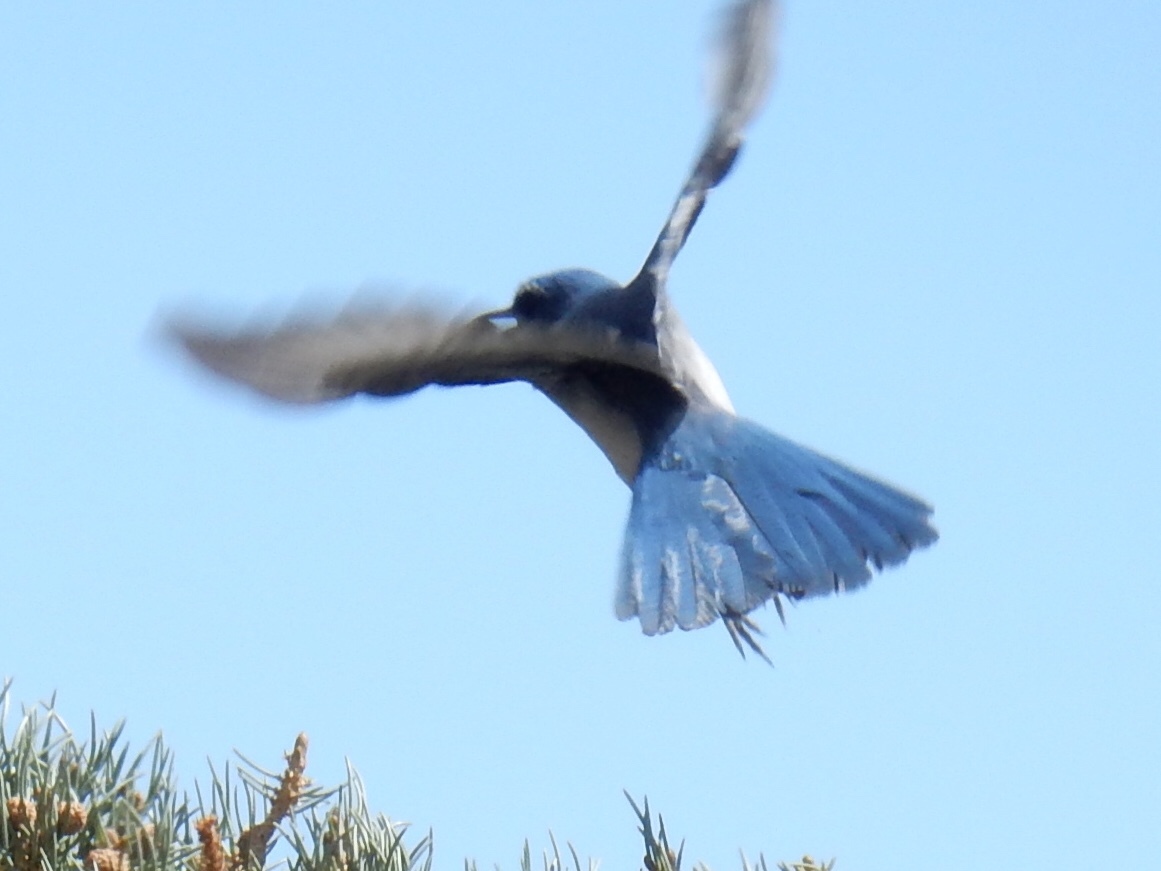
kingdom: Animalia
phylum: Chordata
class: Aves
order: Passeriformes
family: Corvidae
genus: Aphelocoma
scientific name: Aphelocoma woodhouseii
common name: Woodhouse's scrub-jay
